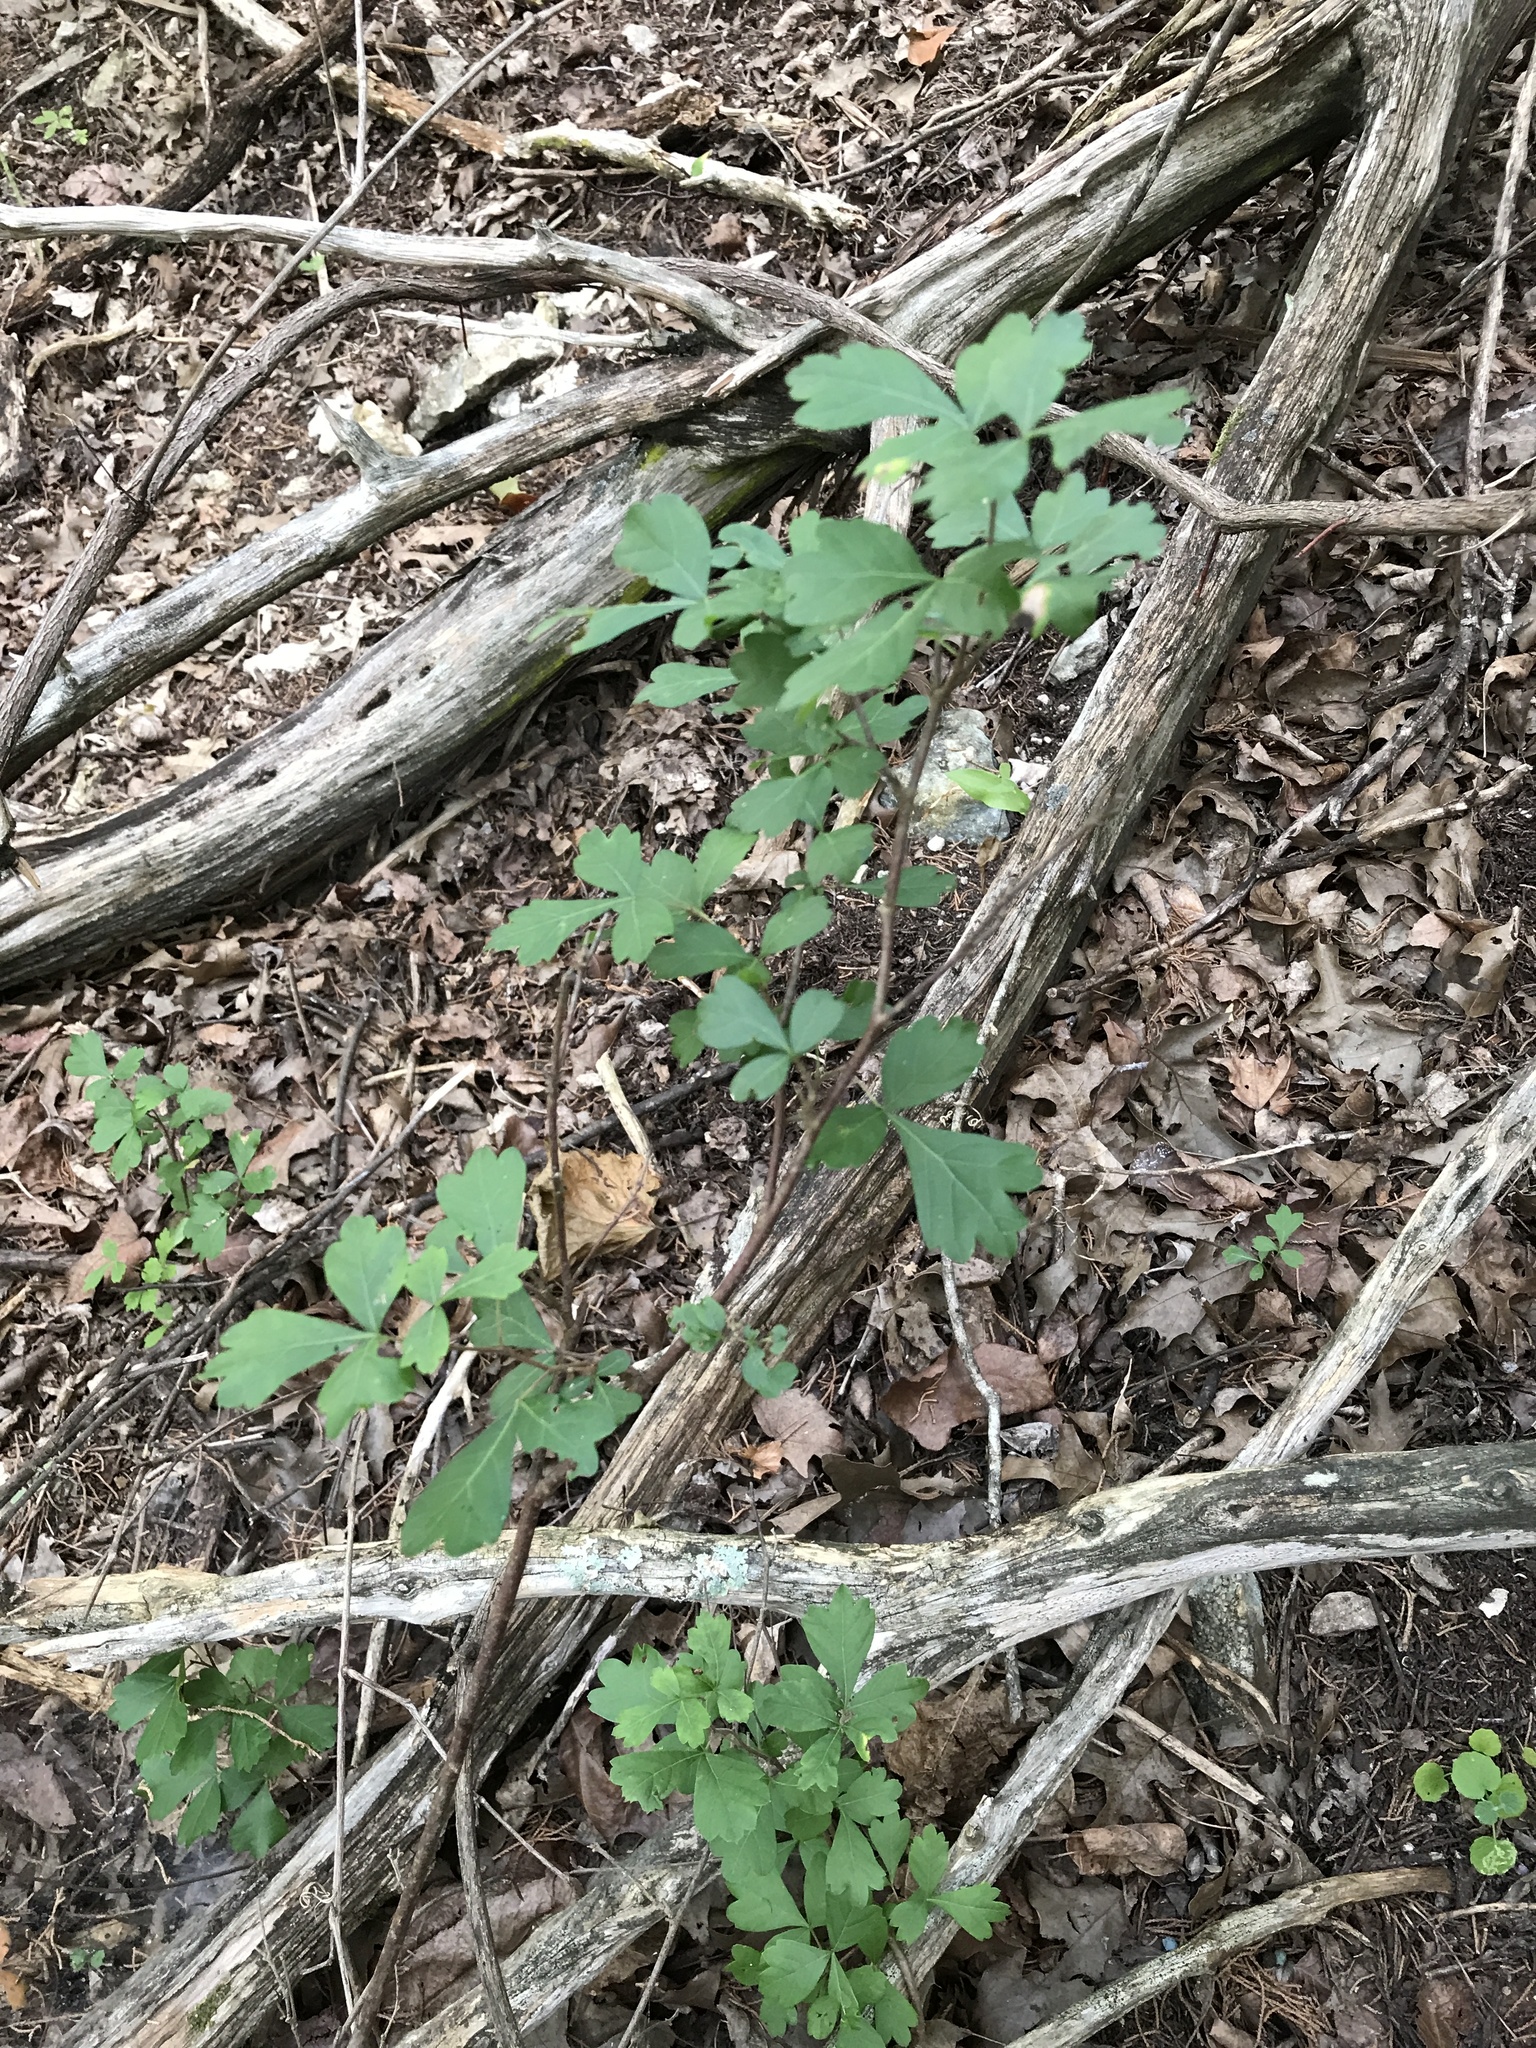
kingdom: Plantae
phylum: Tracheophyta
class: Magnoliopsida
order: Sapindales
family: Anacardiaceae
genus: Rhus
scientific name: Rhus aromatica
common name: Aromatic sumac
